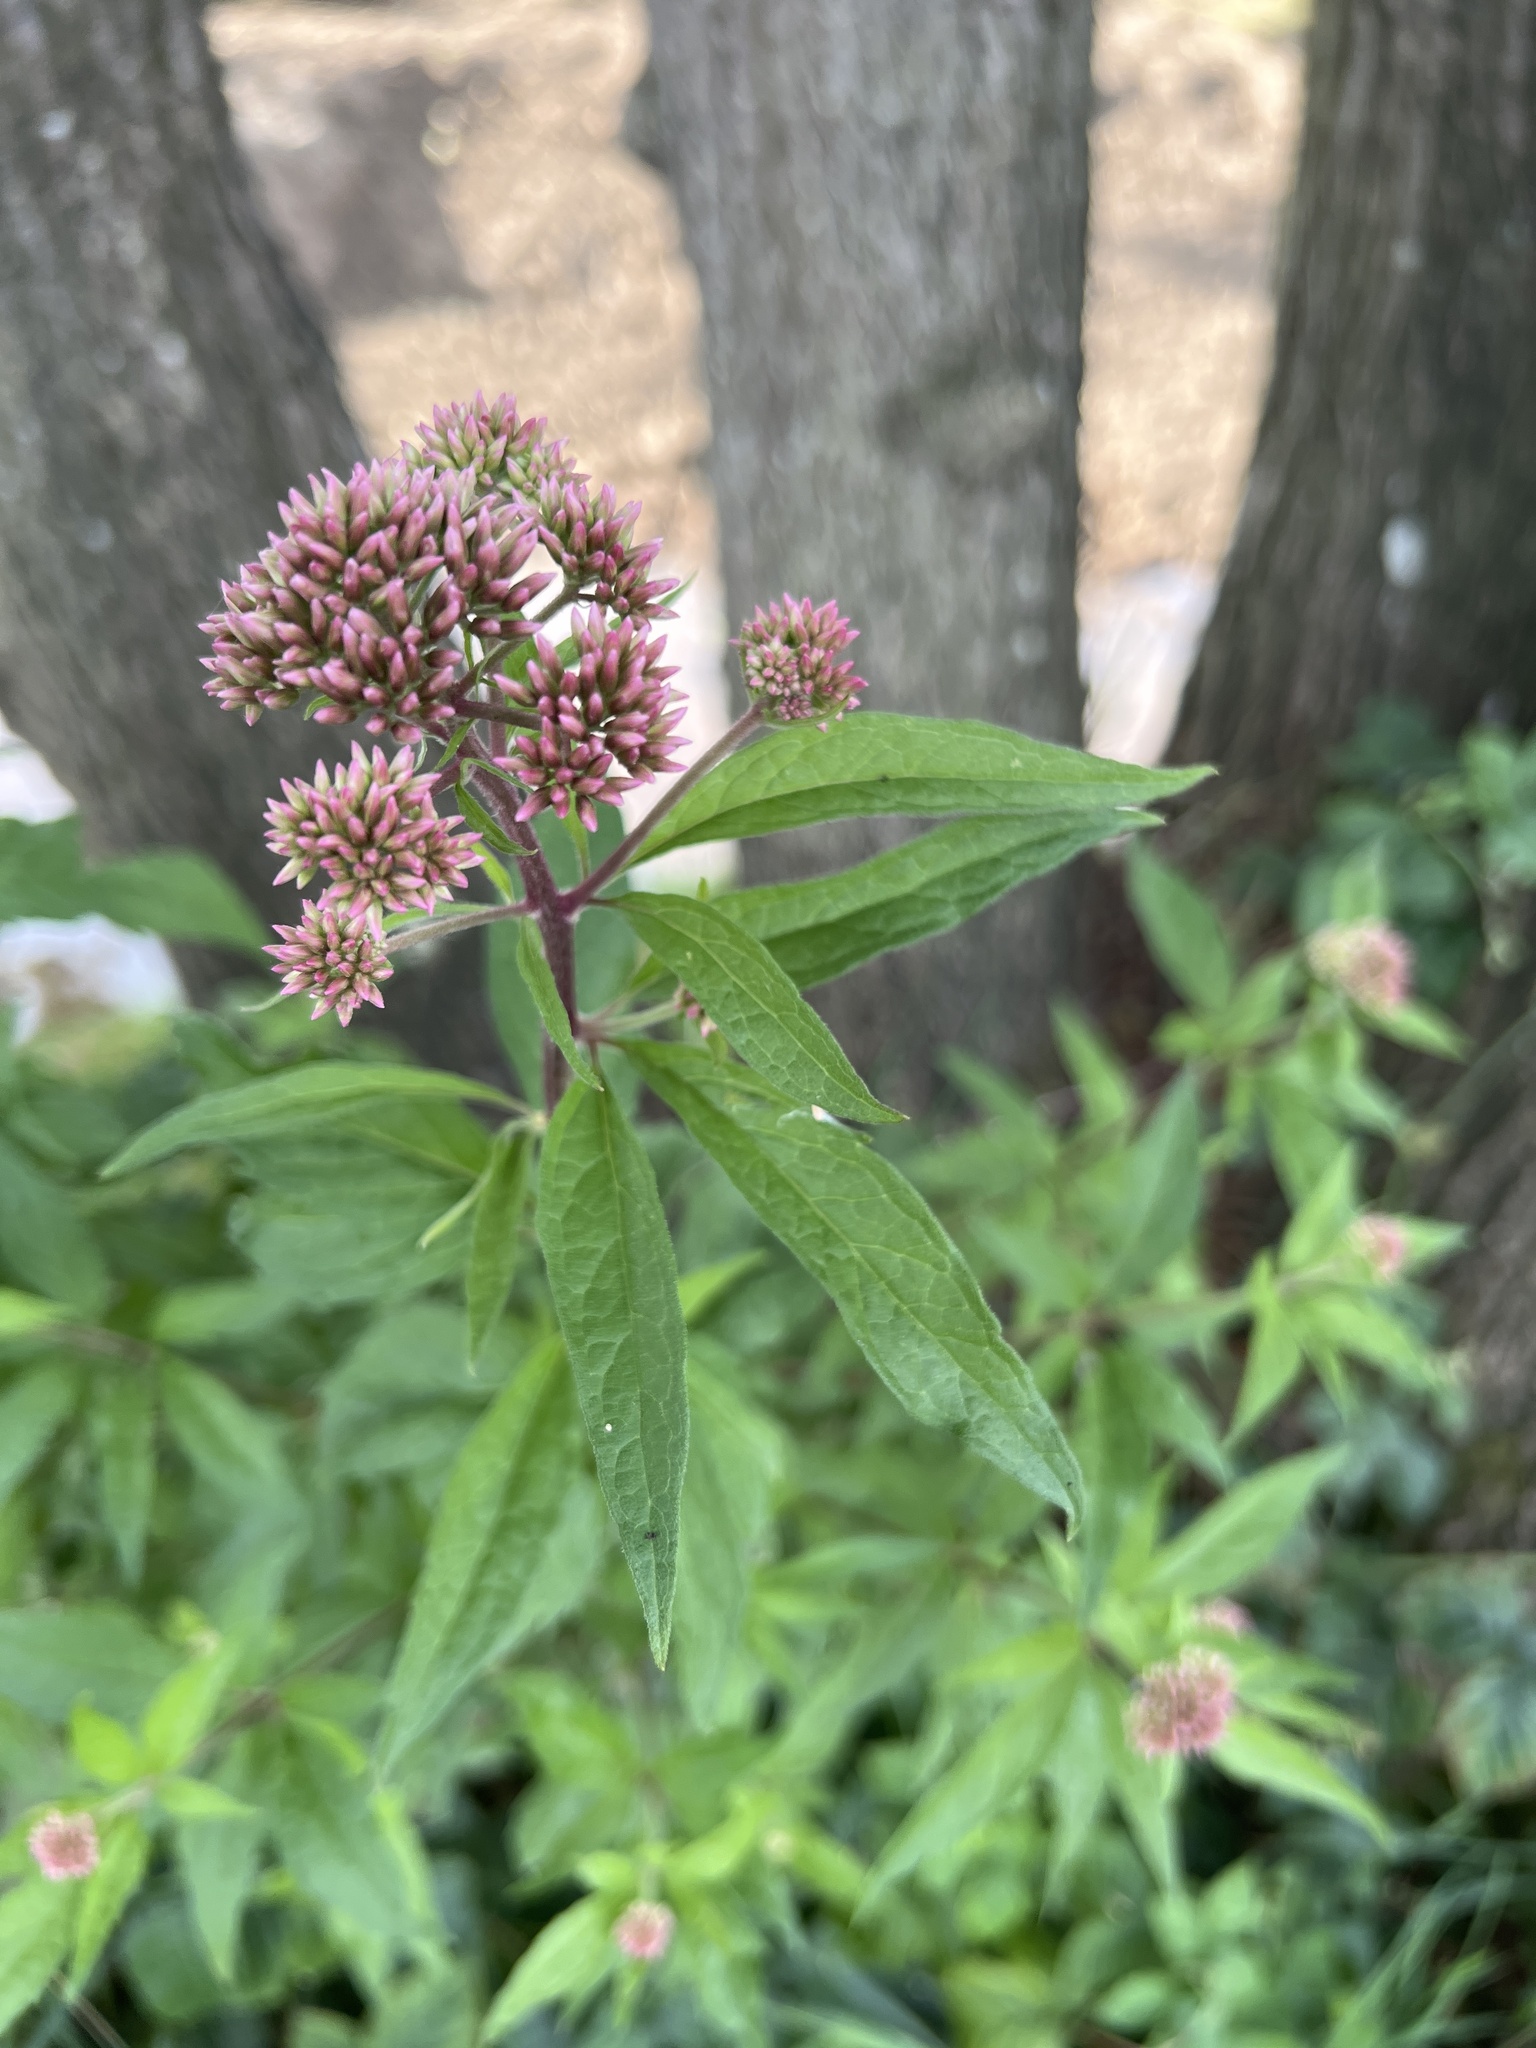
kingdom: Plantae
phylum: Tracheophyta
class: Magnoliopsida
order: Asterales
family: Asteraceae
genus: Eupatorium
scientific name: Eupatorium cannabinum
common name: Hemp-agrimony
